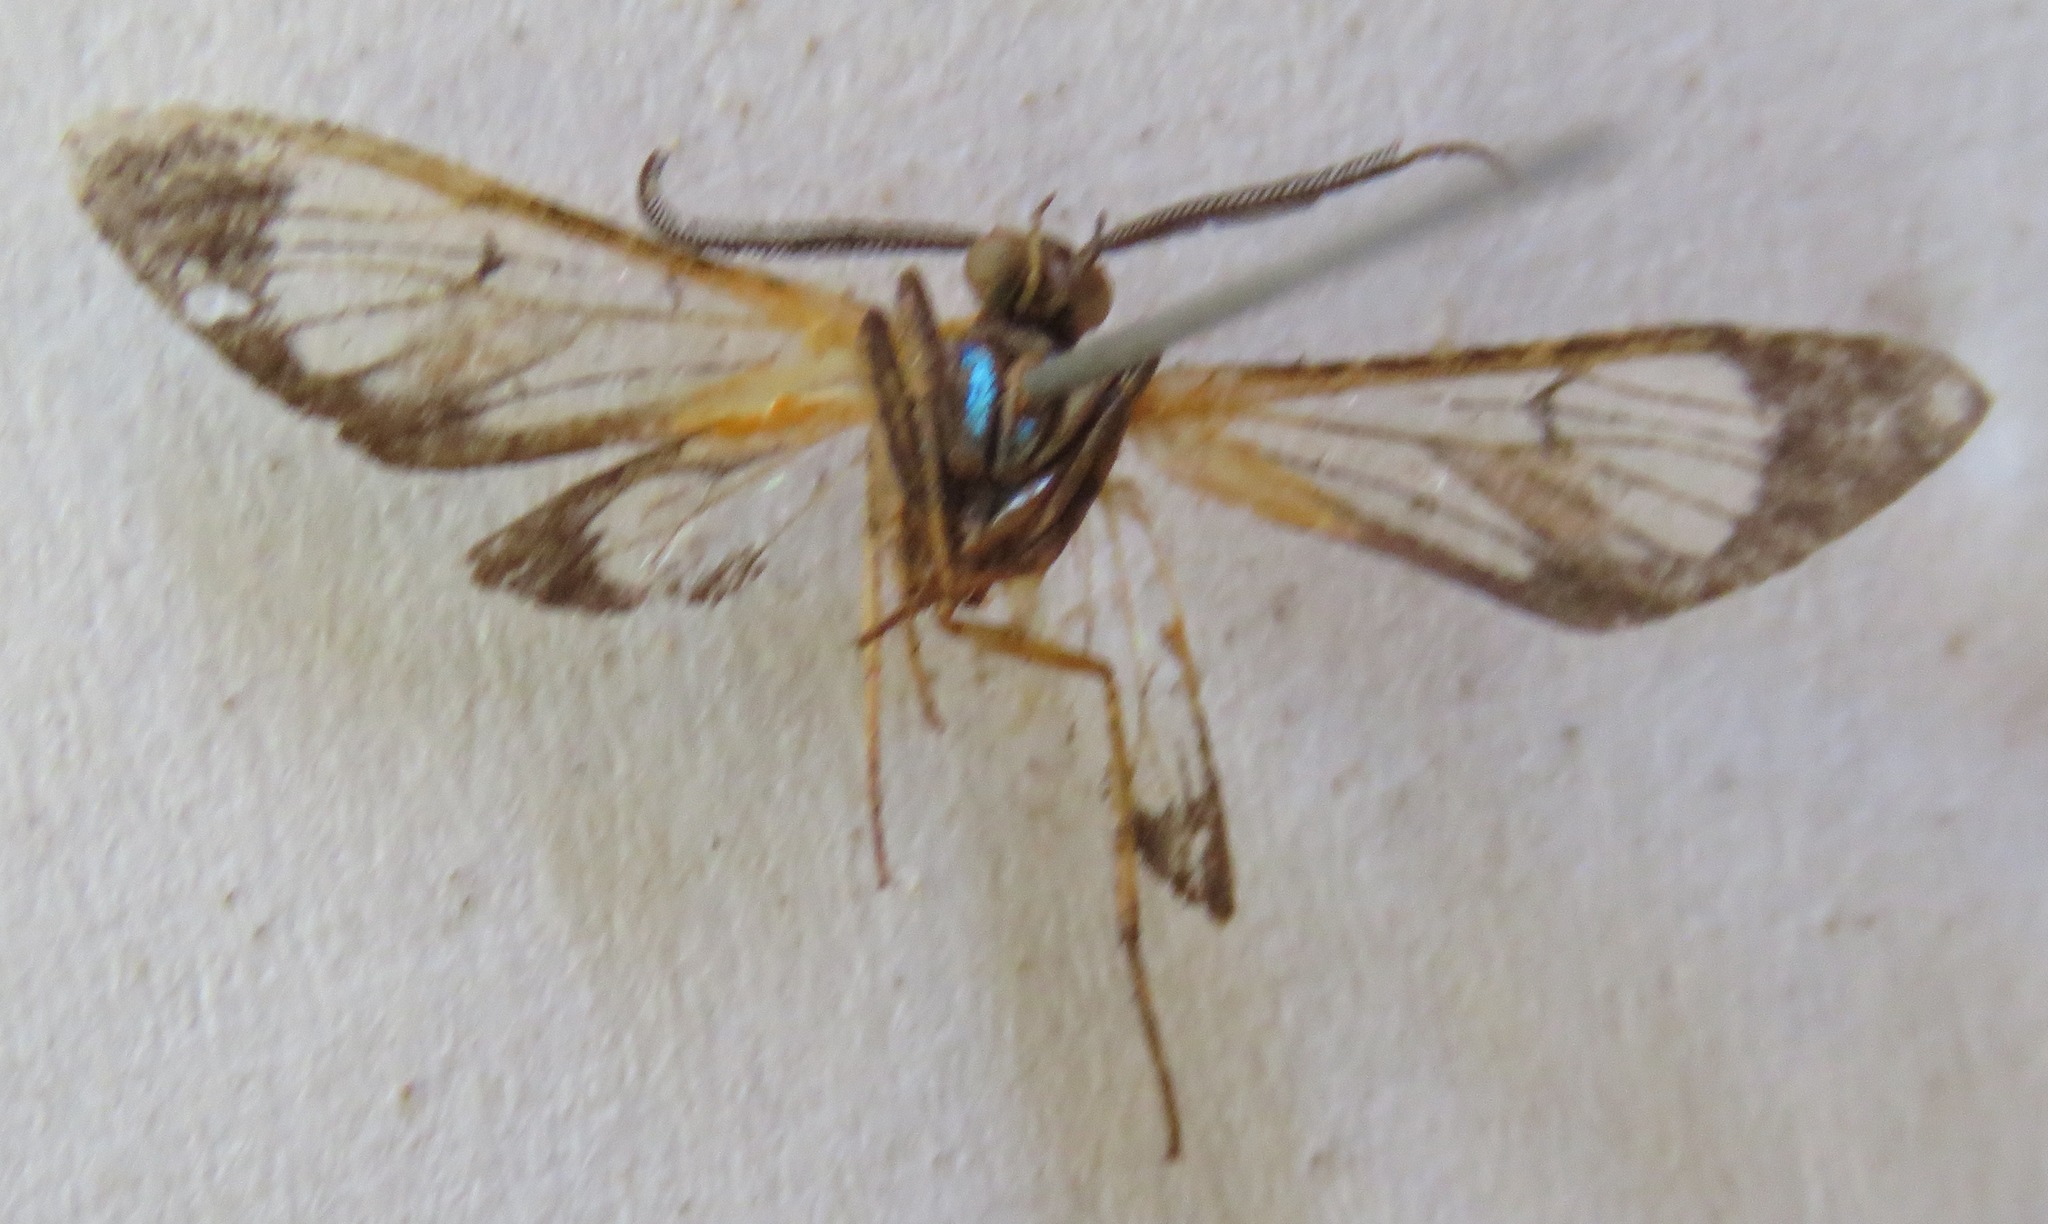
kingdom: Animalia
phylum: Arthropoda
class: Insecta
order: Lepidoptera
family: Erebidae
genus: Cosmosoma
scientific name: Cosmosoma achemon
